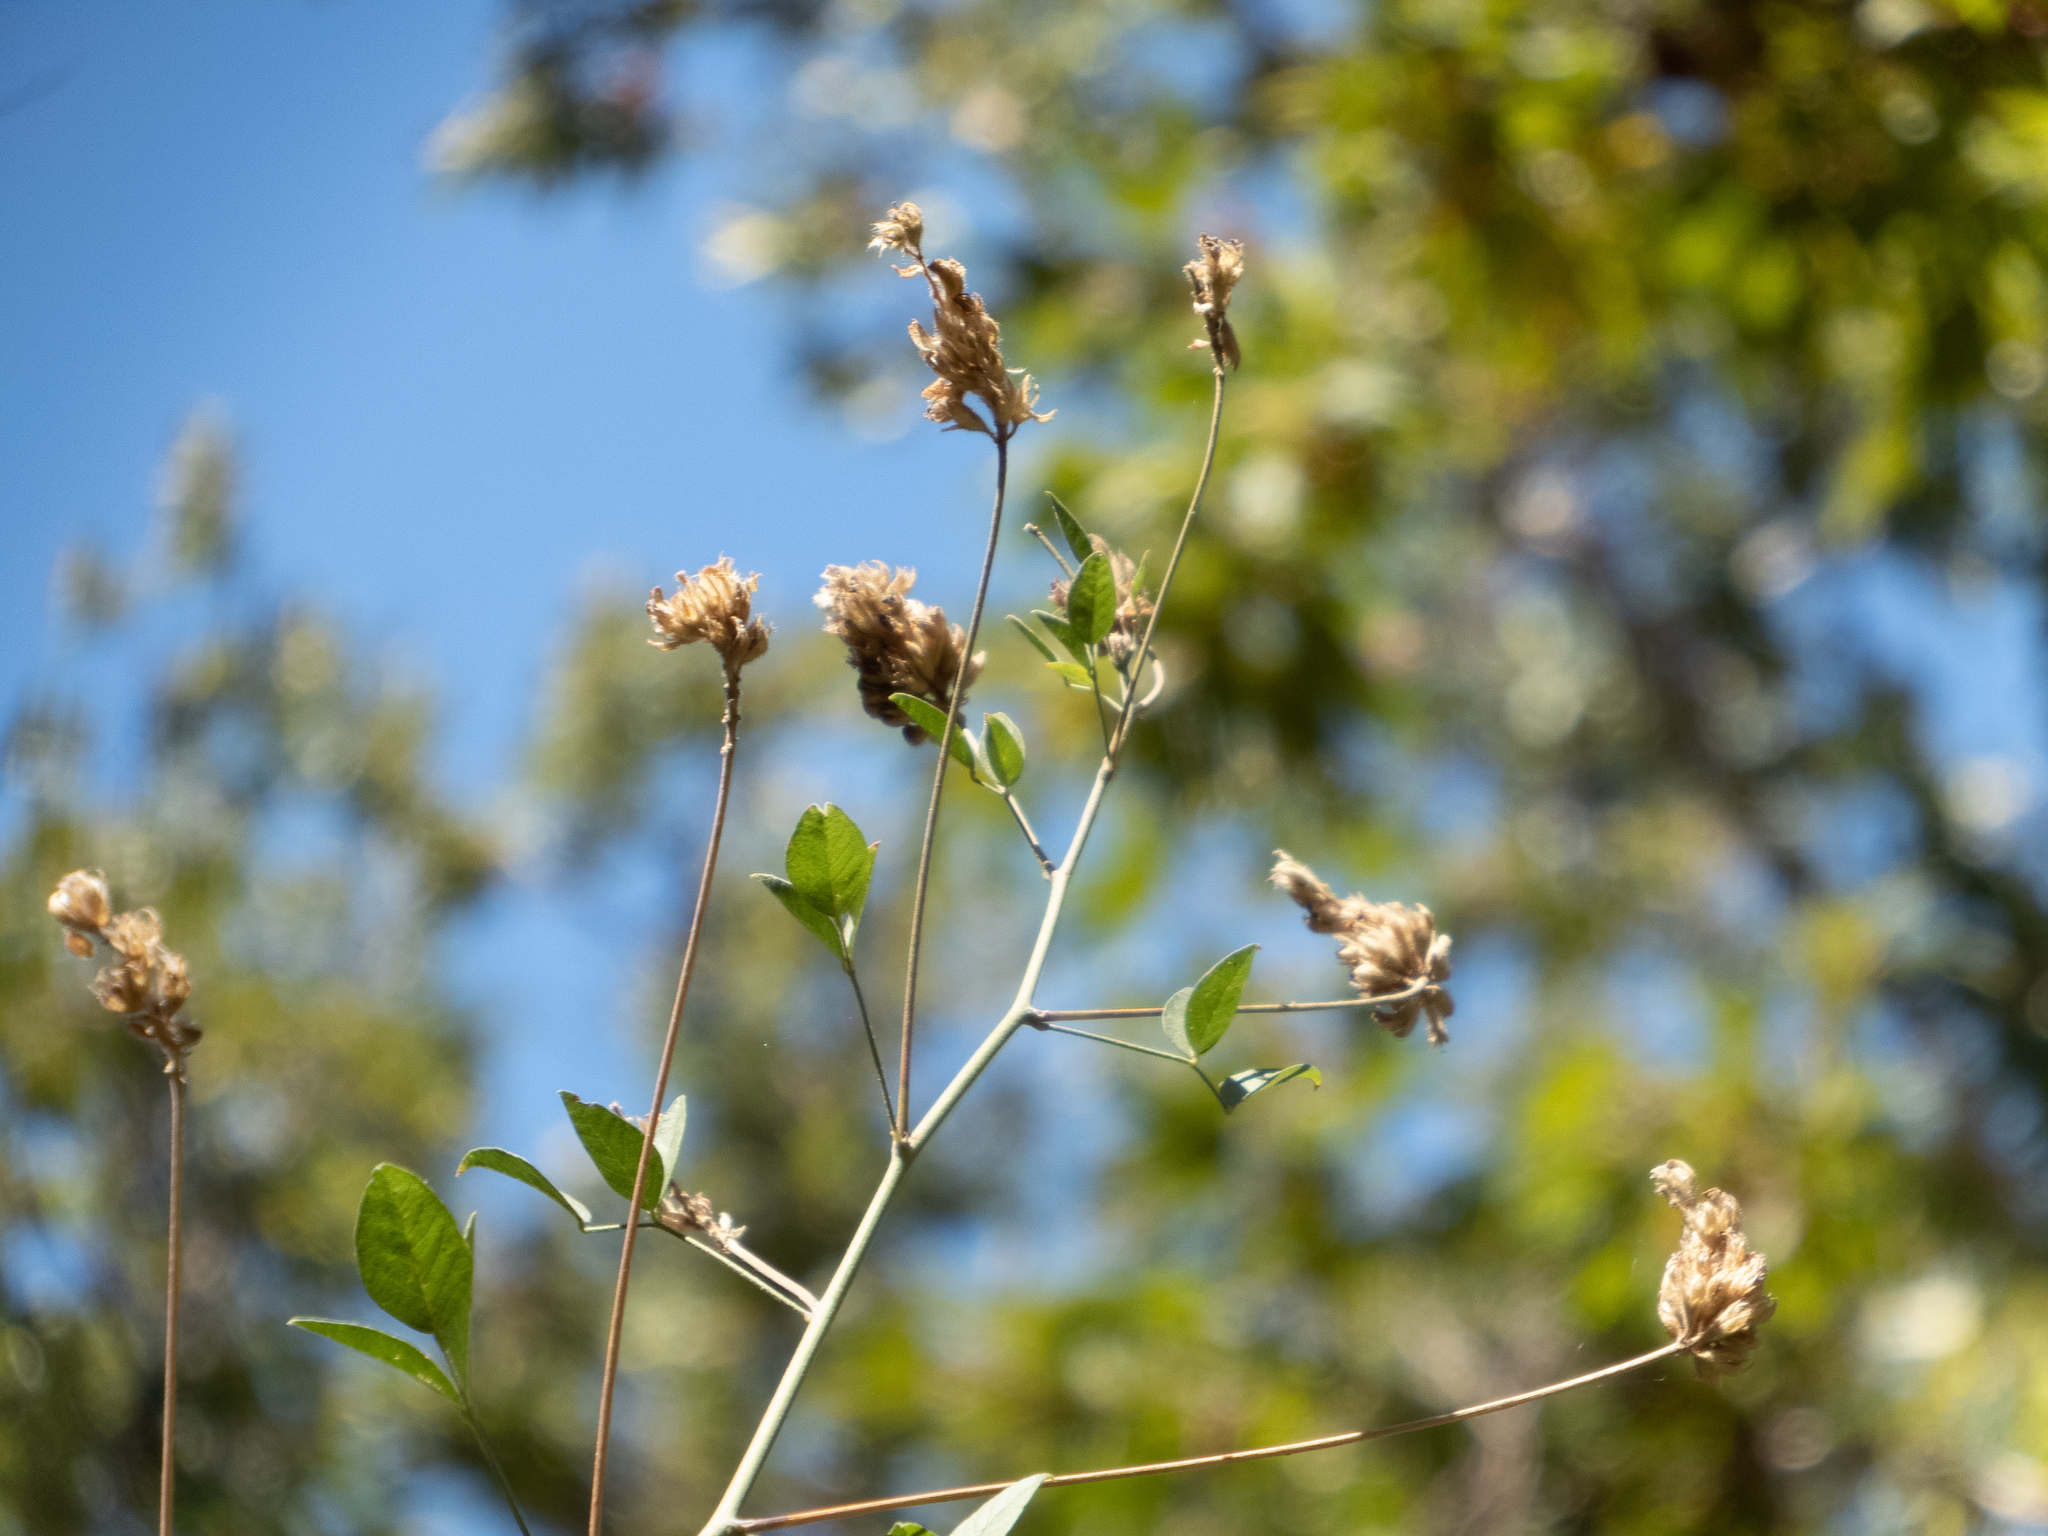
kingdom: Plantae
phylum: Tracheophyta
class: Magnoliopsida
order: Fabales
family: Fabaceae
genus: Hoita
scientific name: Hoita macrostachya
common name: Leatherroot
